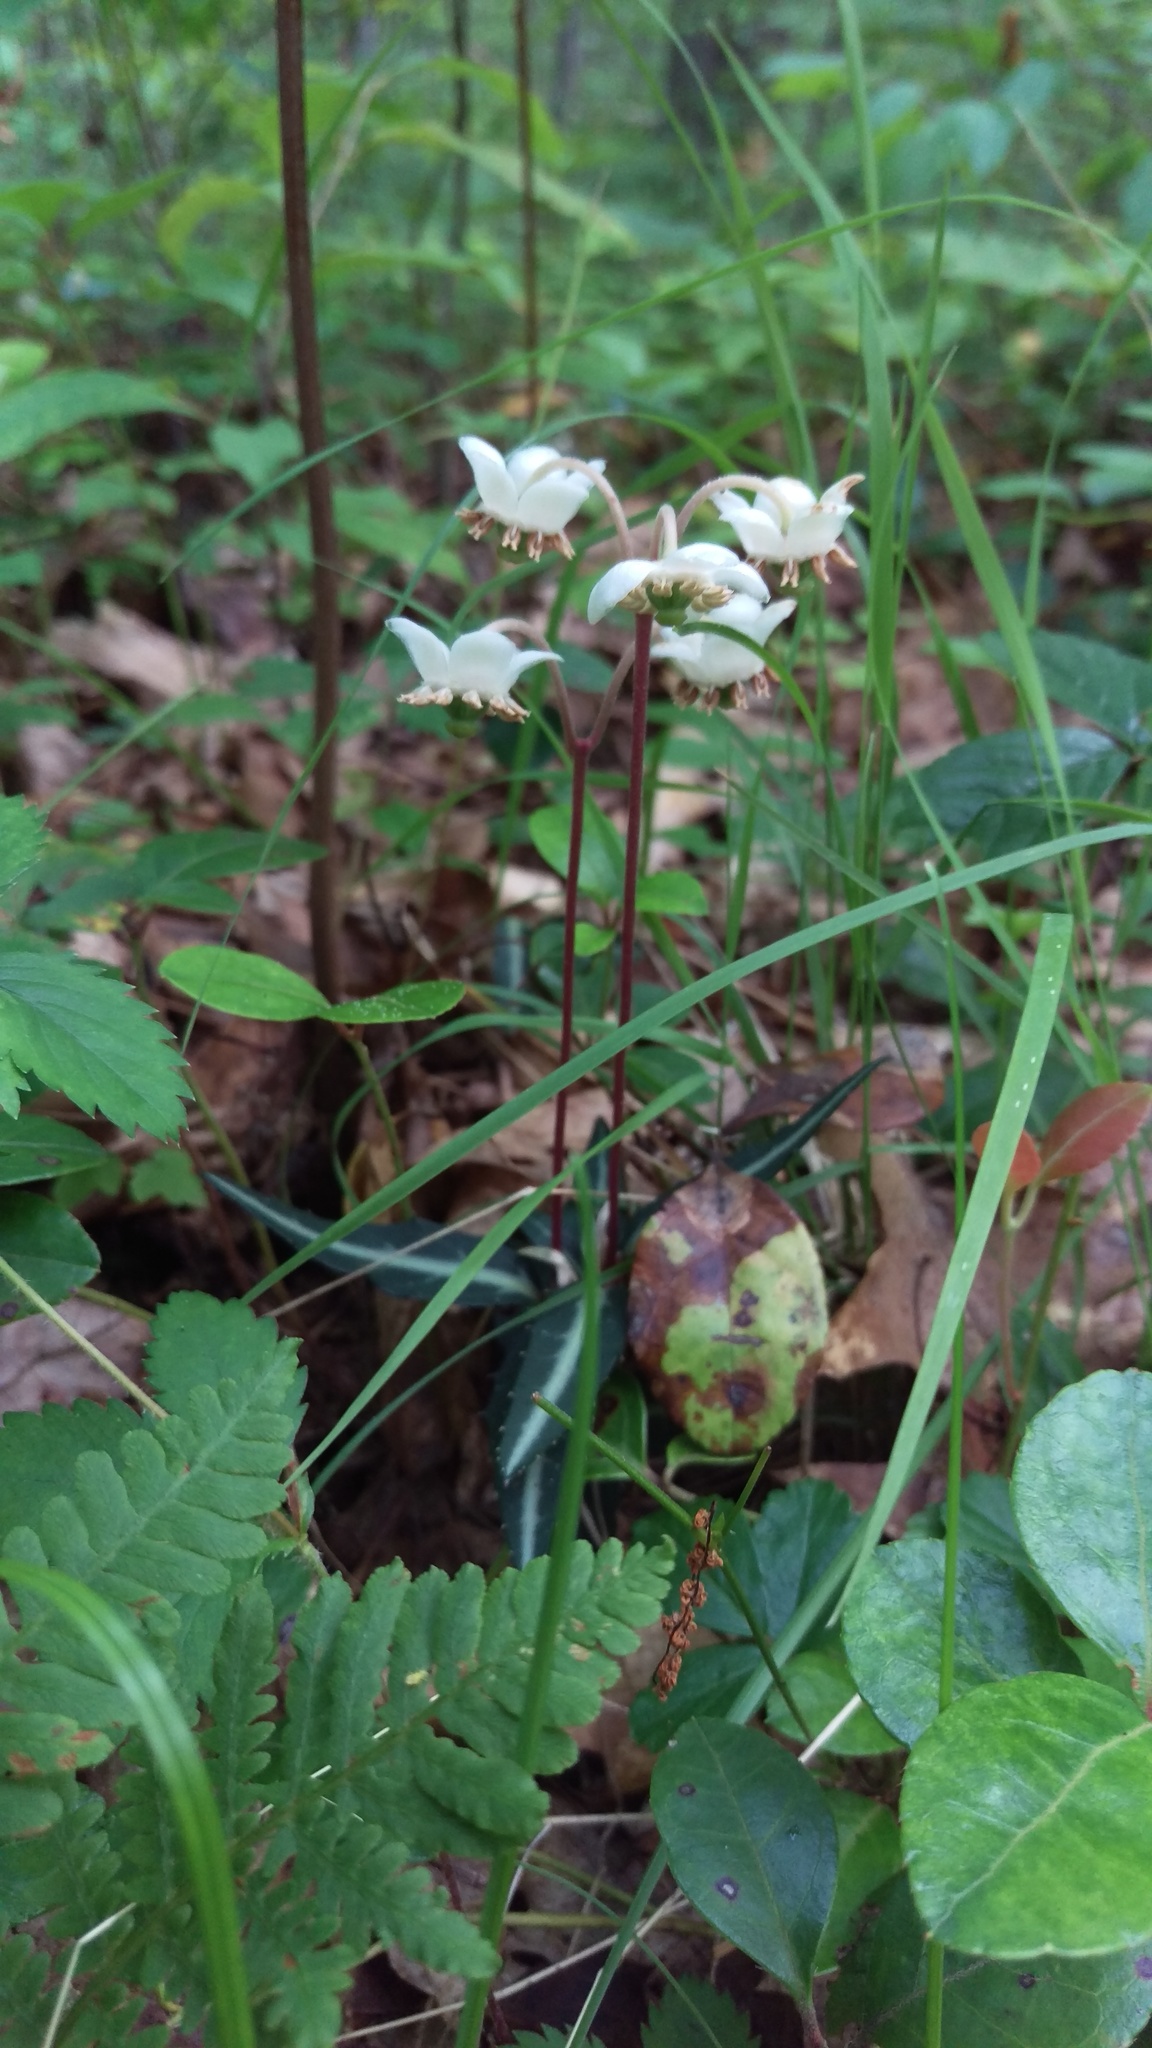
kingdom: Plantae
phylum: Tracheophyta
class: Magnoliopsida
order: Ericales
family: Ericaceae
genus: Chimaphila
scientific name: Chimaphila maculata
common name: Spotted pipsissewa
